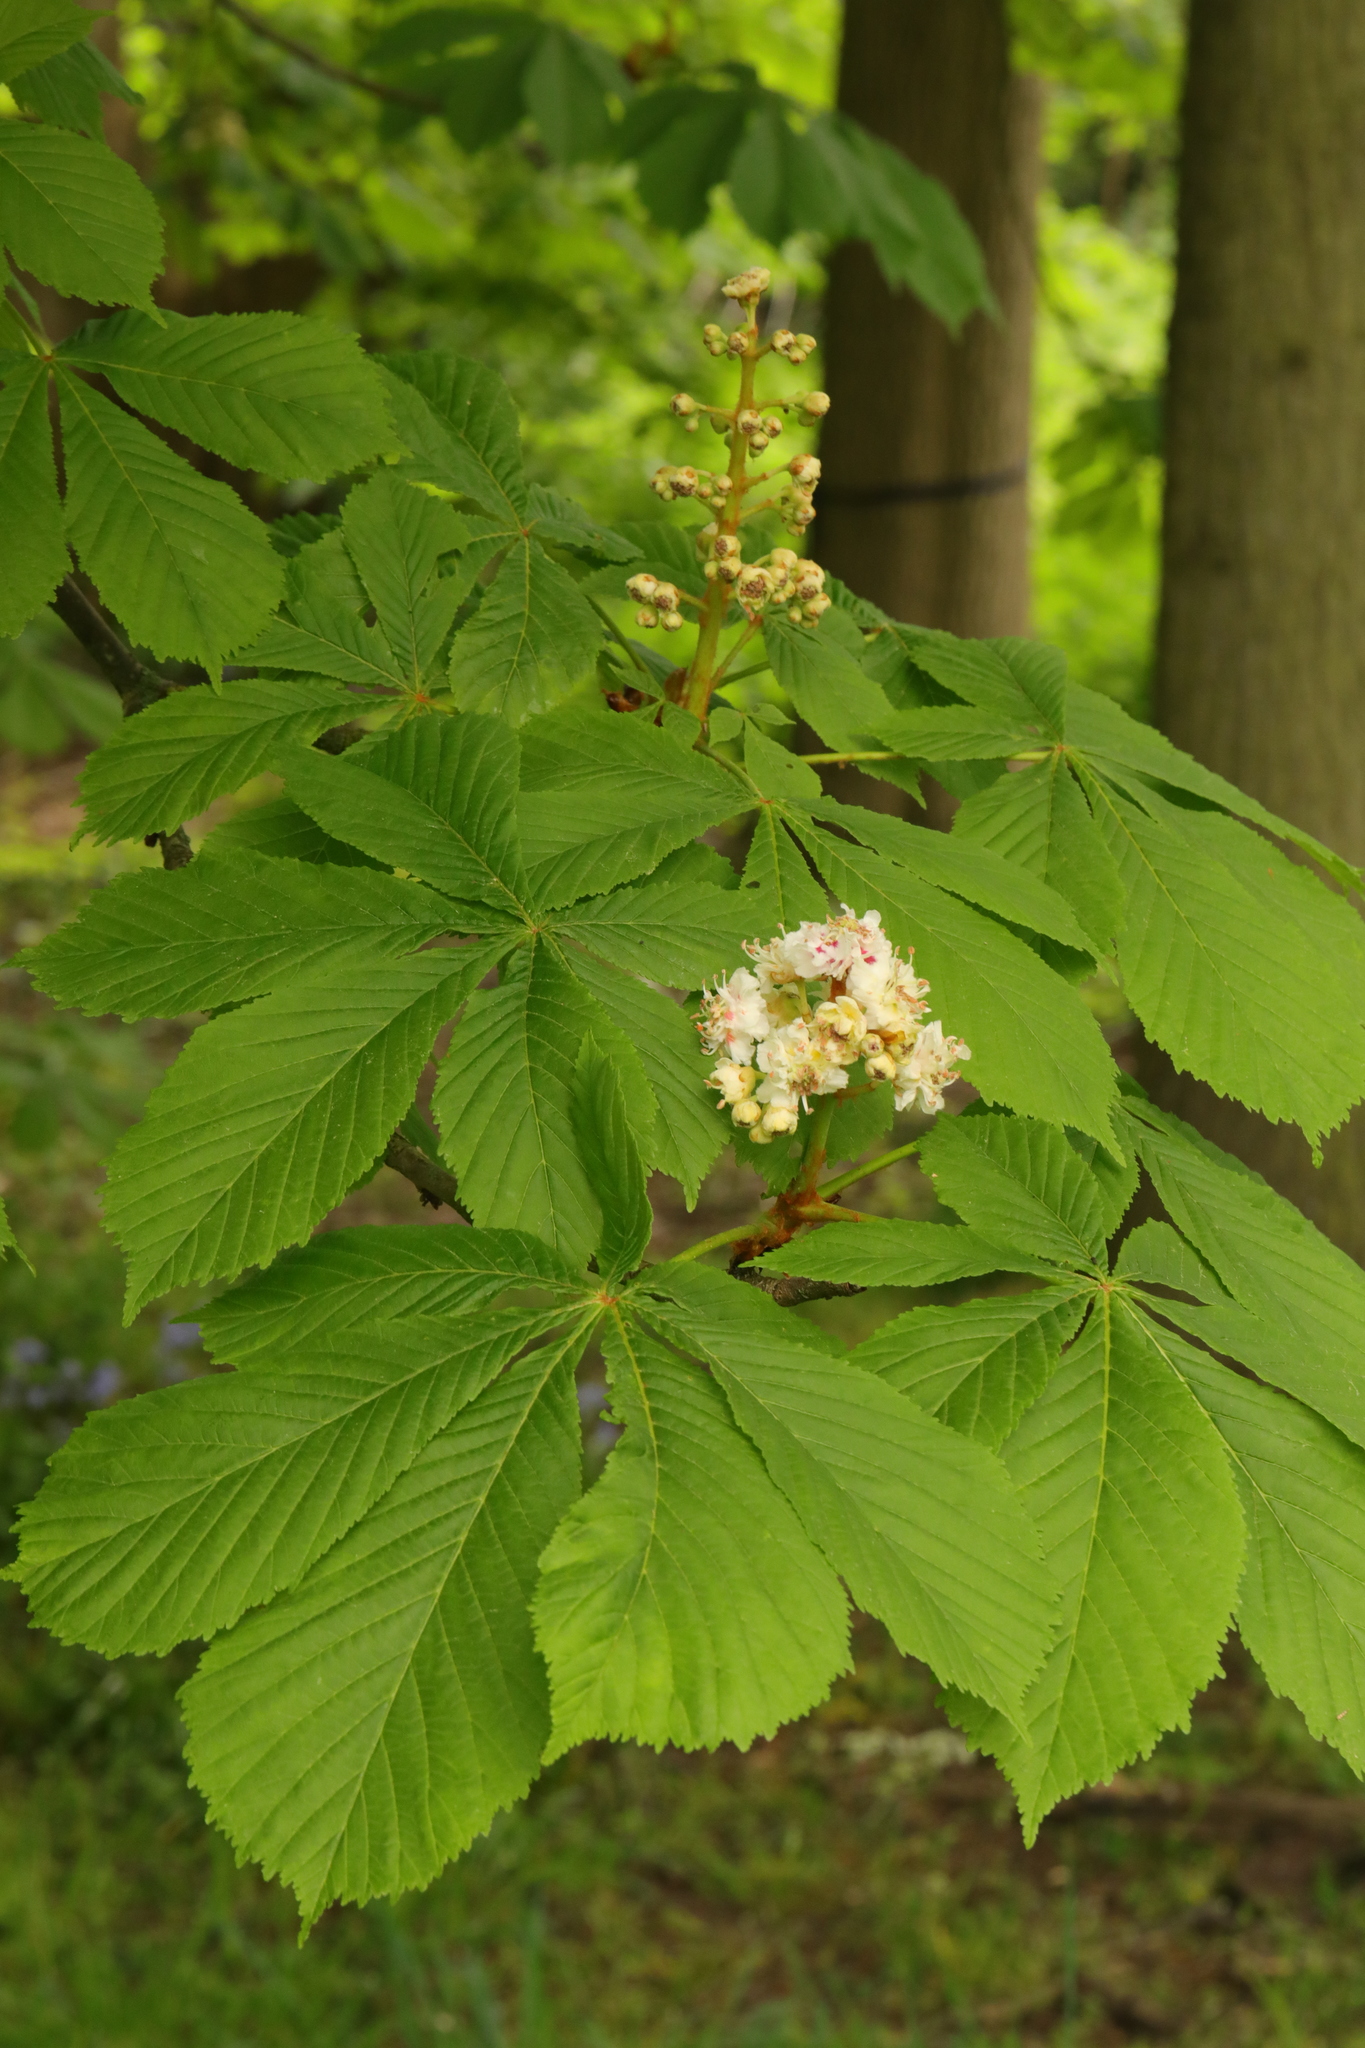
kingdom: Plantae
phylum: Tracheophyta
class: Magnoliopsida
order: Sapindales
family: Sapindaceae
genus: Aesculus
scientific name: Aesculus hippocastanum
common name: Horse-chestnut
